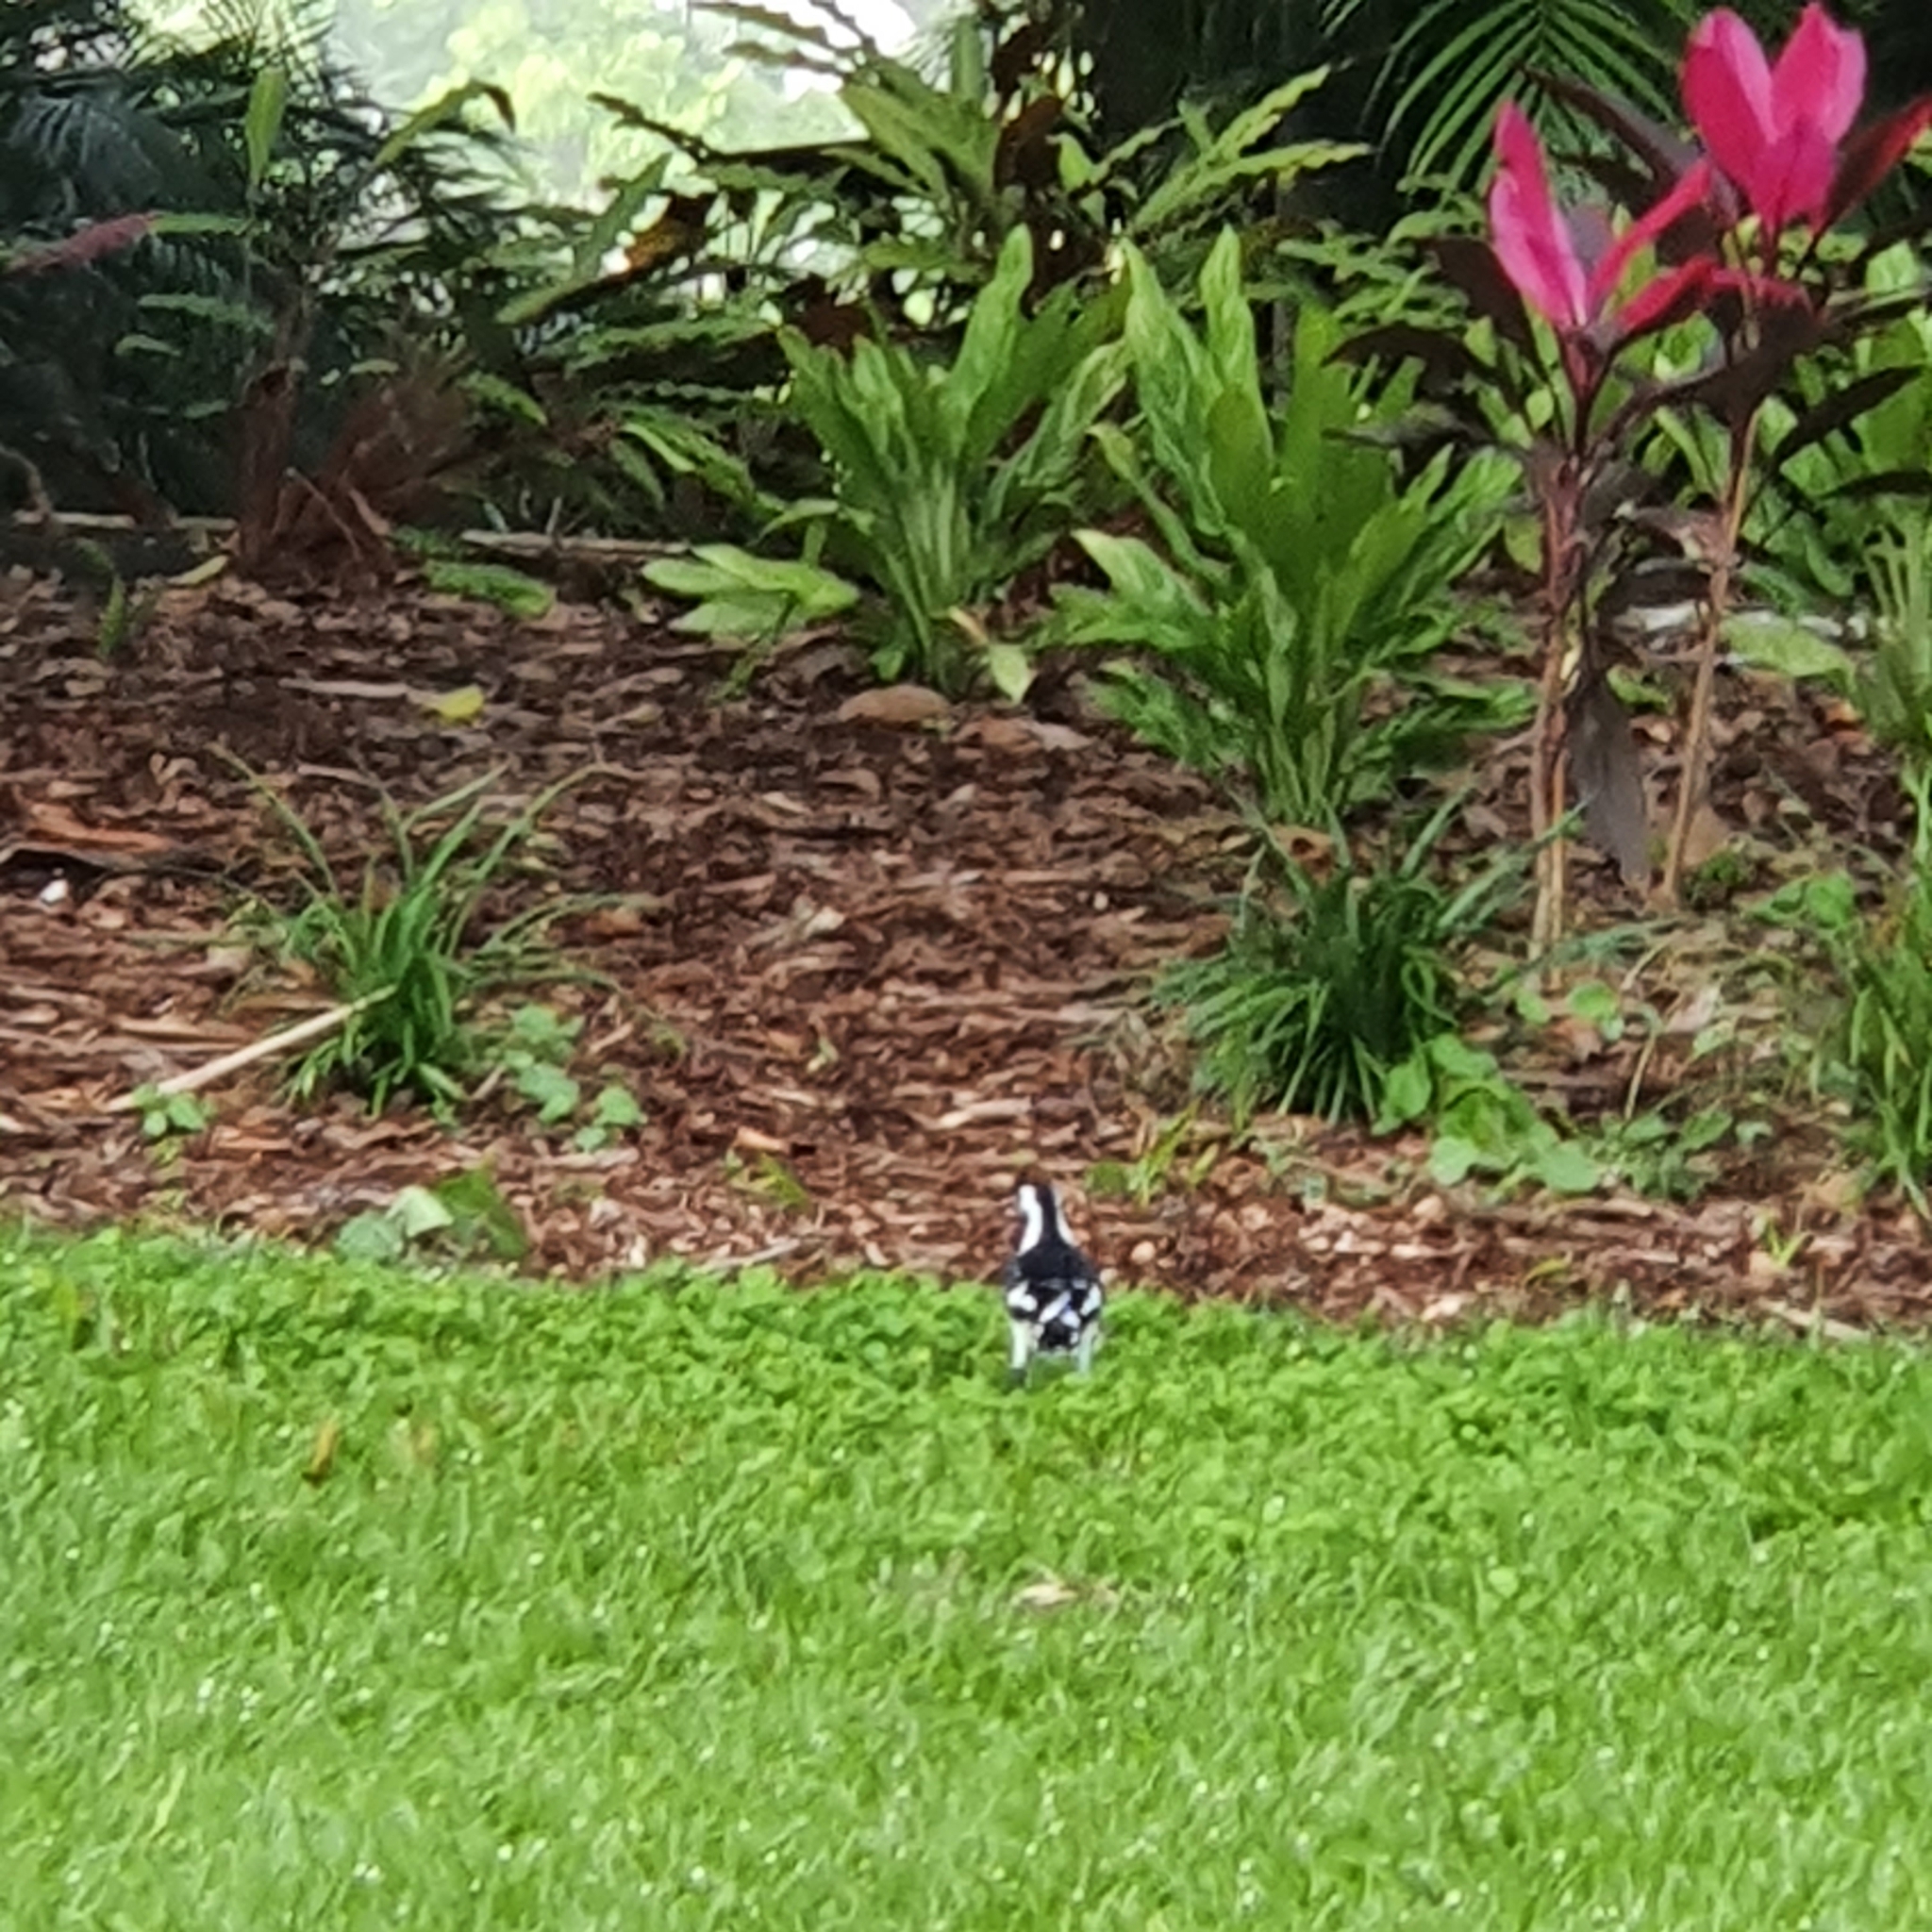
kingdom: Animalia
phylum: Chordata
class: Aves
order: Passeriformes
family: Monarchidae
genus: Grallina
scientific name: Grallina cyanoleuca
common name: Magpie-lark
